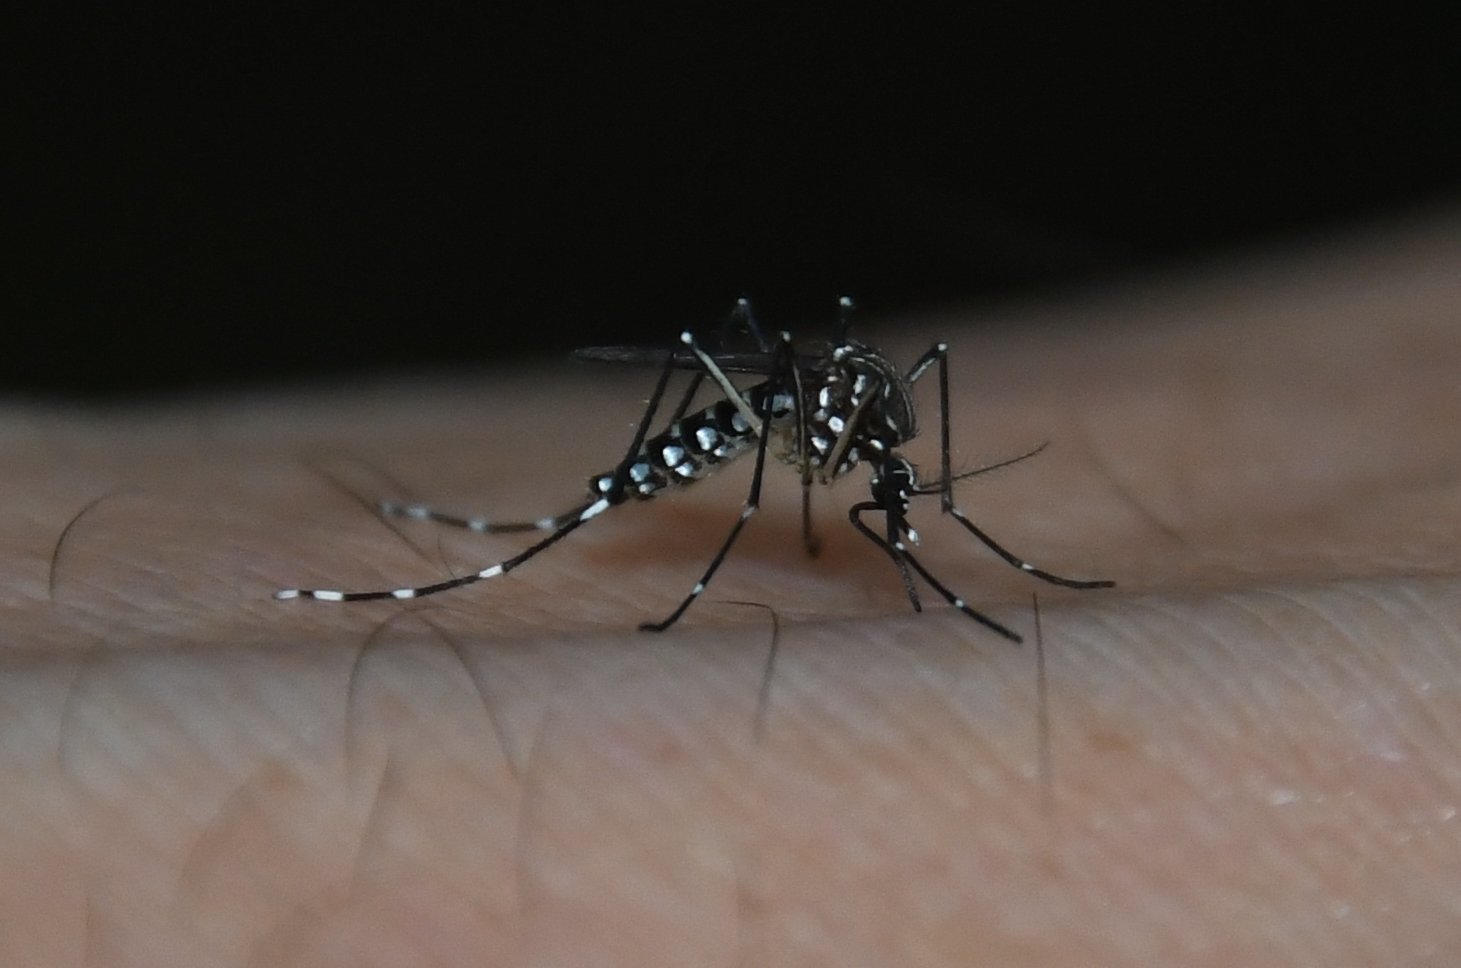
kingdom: Animalia
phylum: Arthropoda
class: Insecta
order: Diptera
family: Culicidae
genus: Aedes
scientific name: Aedes aegypti
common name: Yellow fever mosquito
